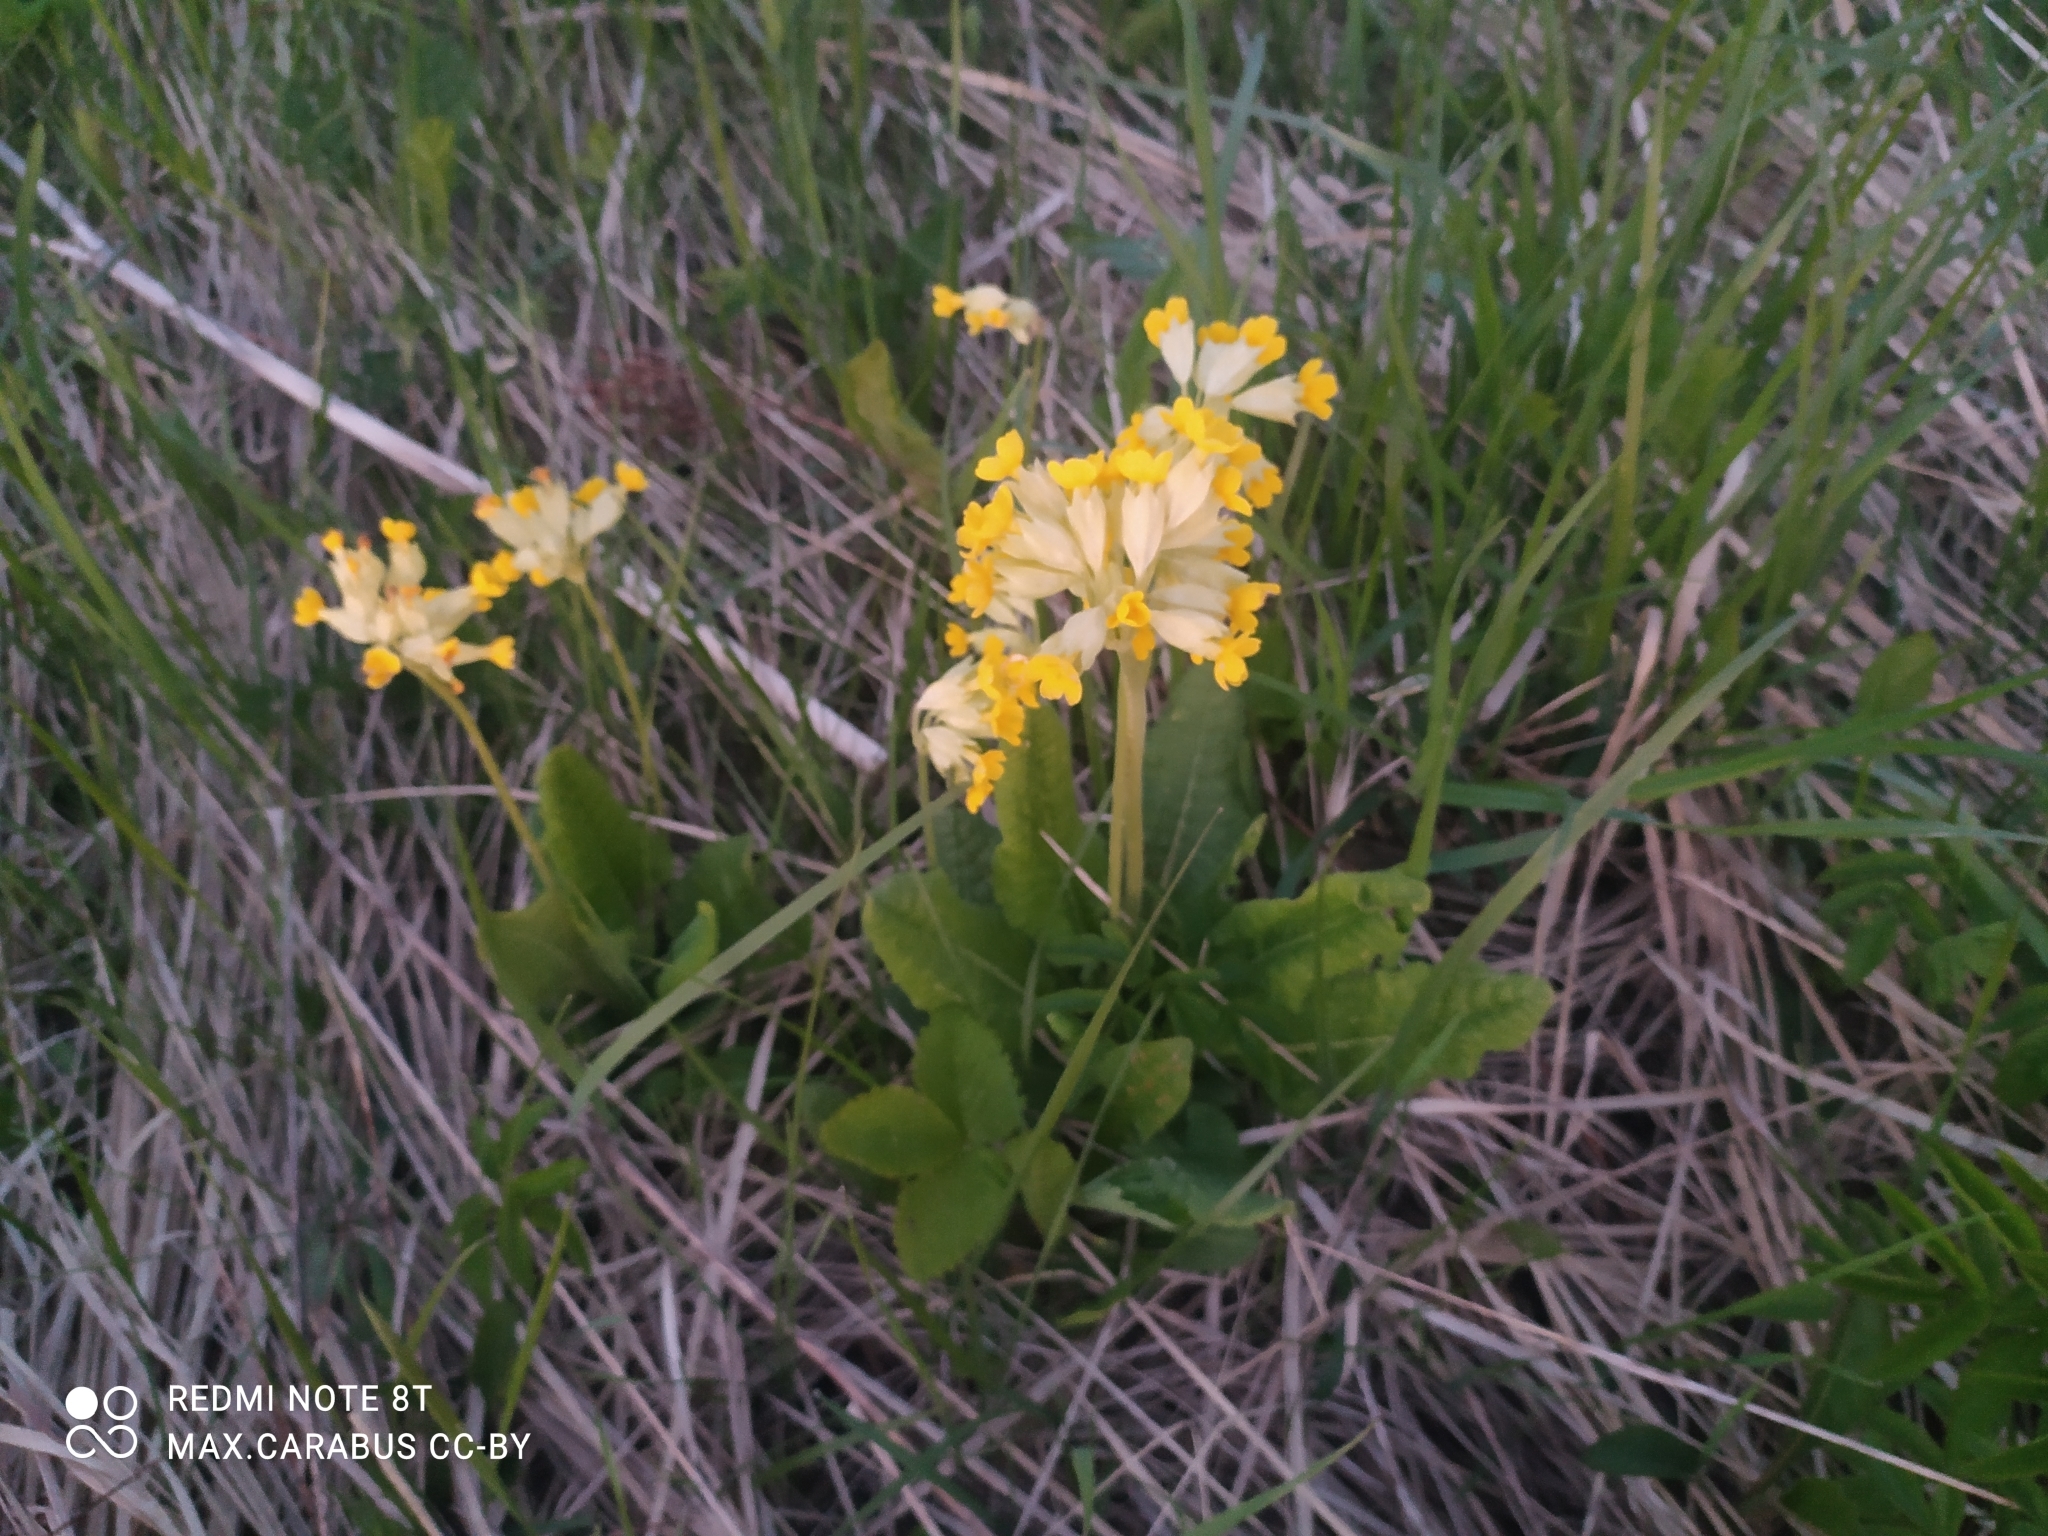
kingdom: Plantae
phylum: Tracheophyta
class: Magnoliopsida
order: Ericales
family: Primulaceae
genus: Primula
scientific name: Primula veris
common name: Cowslip
